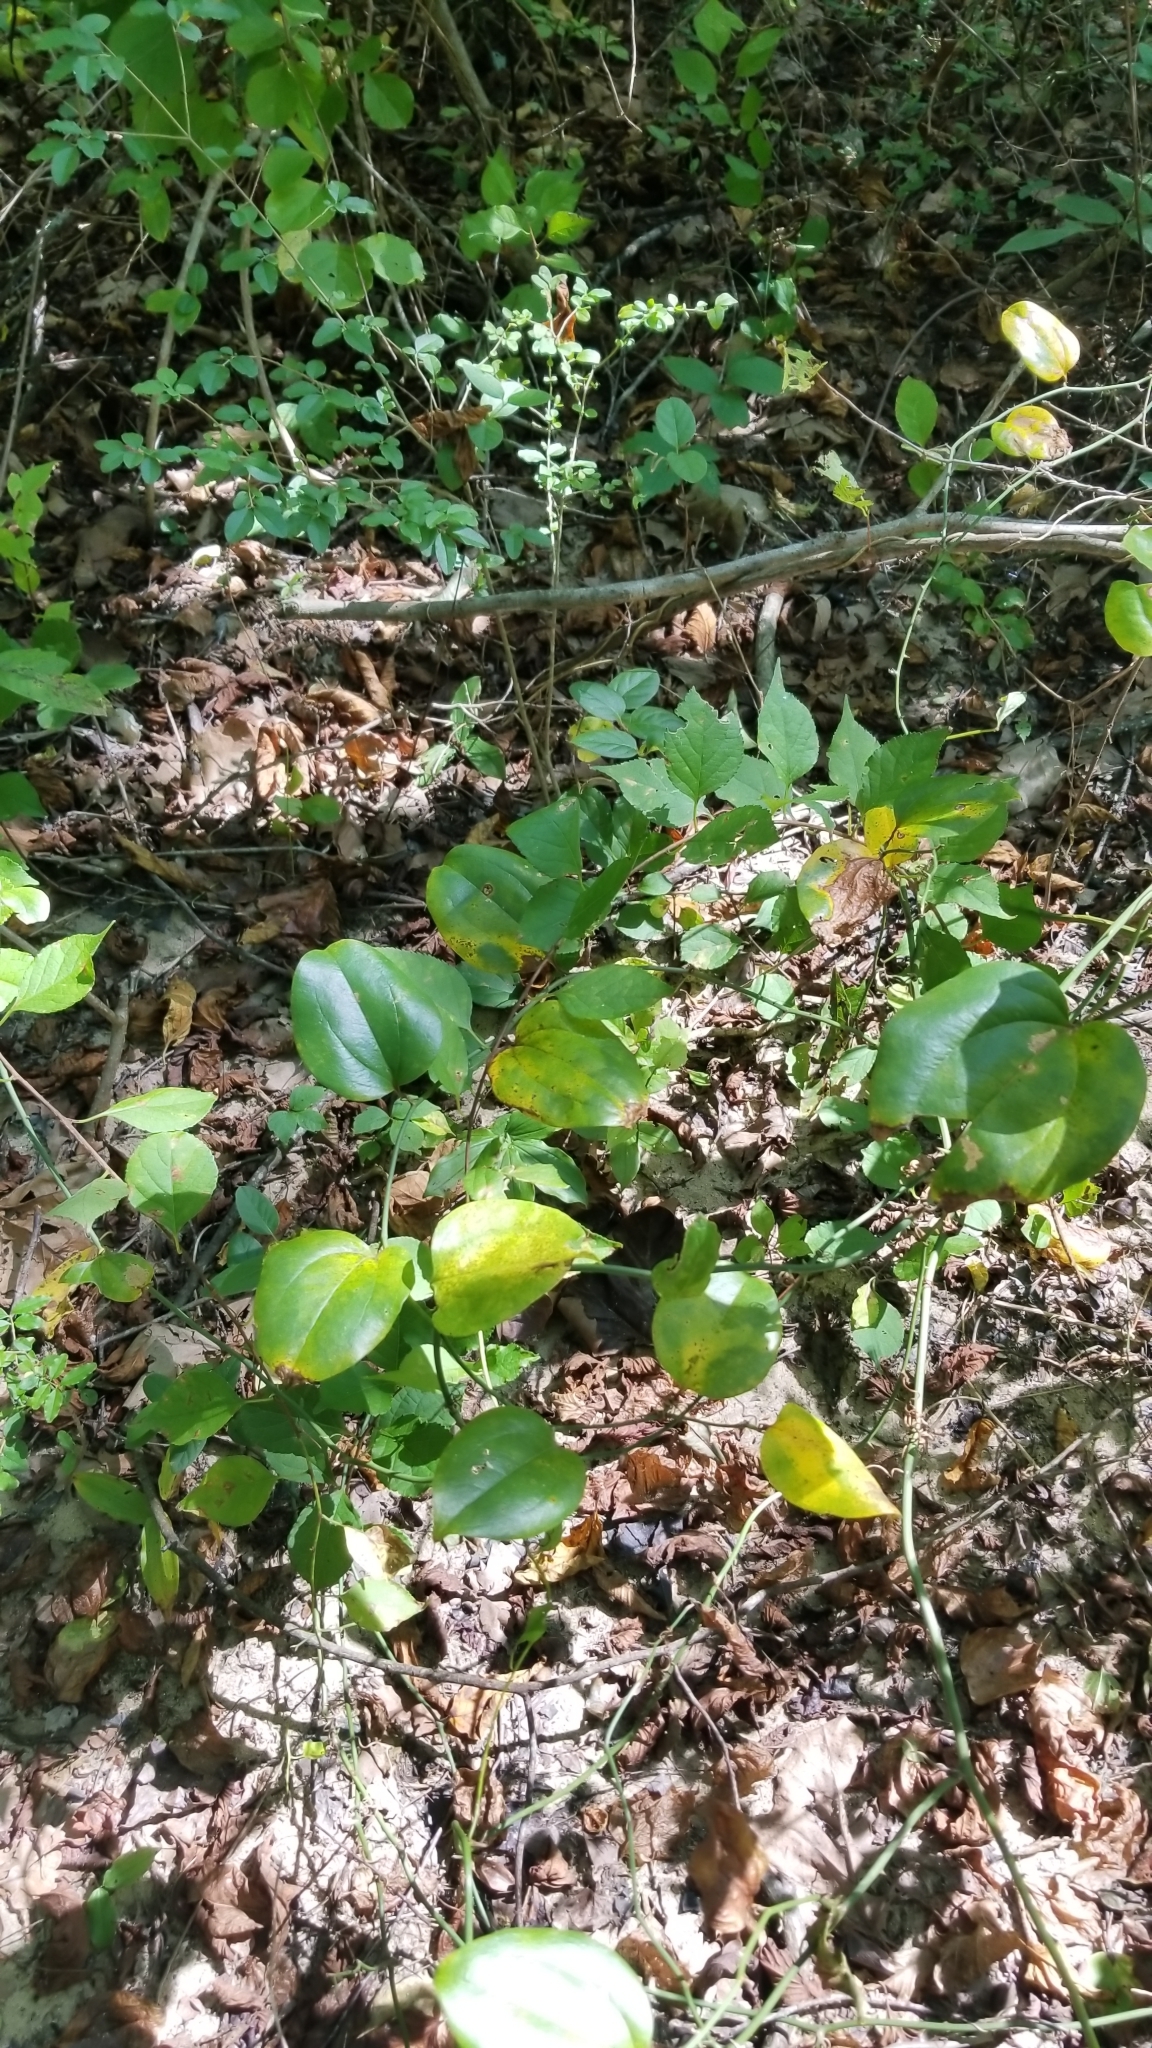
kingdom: Plantae
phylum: Tracheophyta
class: Liliopsida
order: Liliales
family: Smilacaceae
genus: Smilax
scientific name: Smilax rotundifolia
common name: Bullbriar
